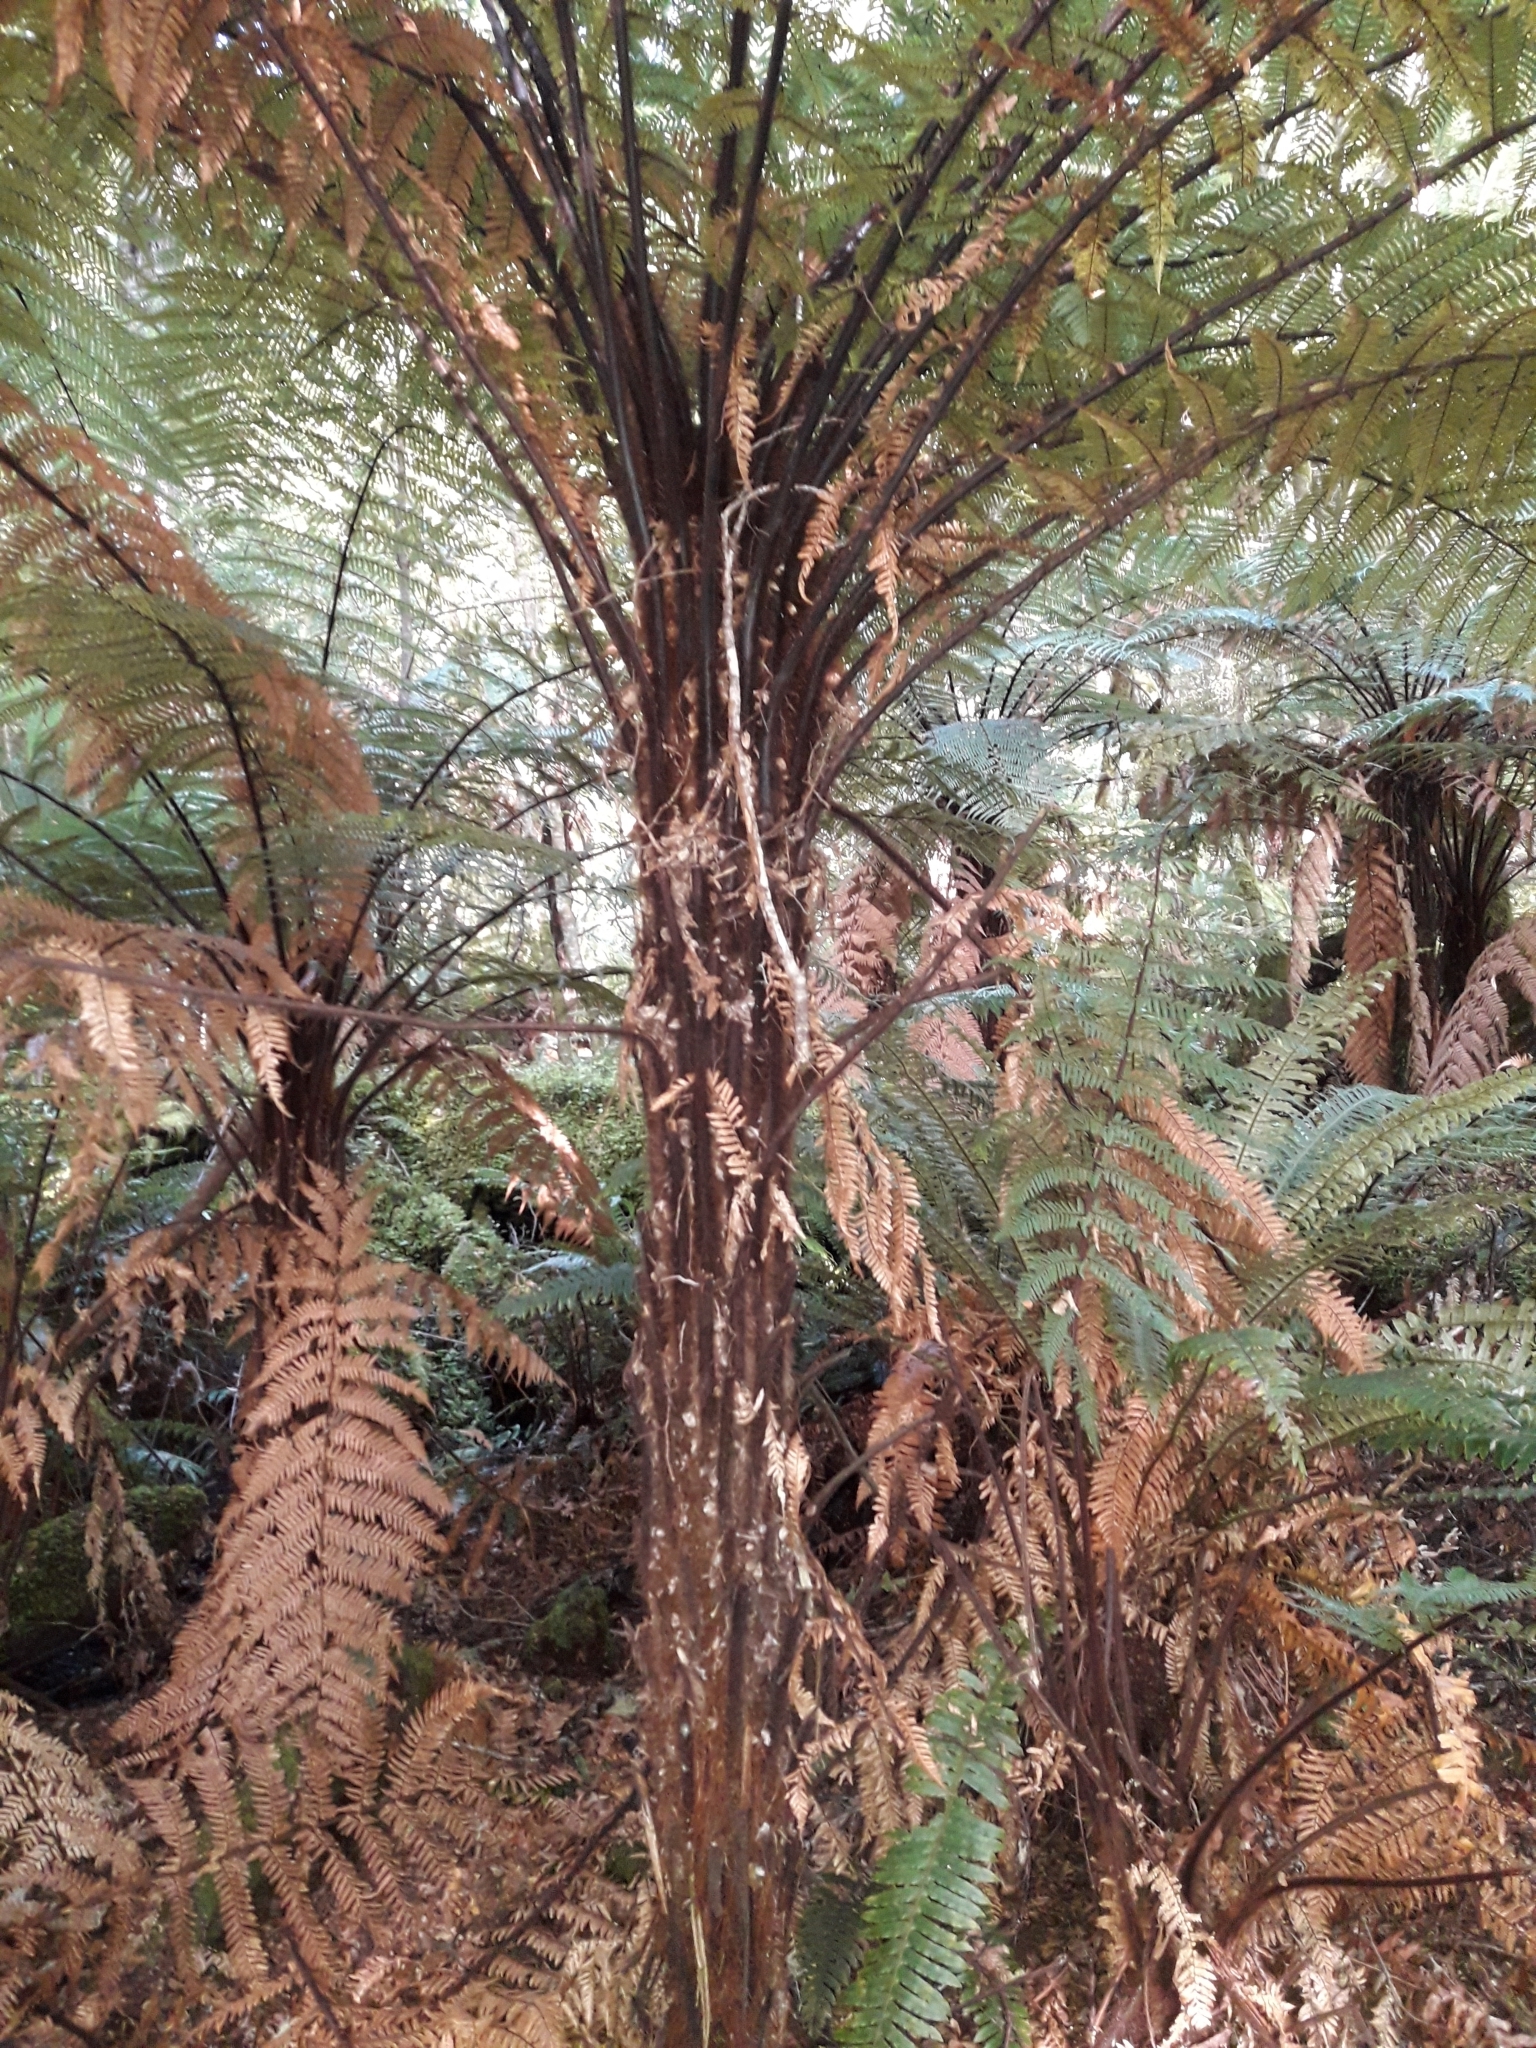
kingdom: Plantae
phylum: Tracheophyta
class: Polypodiopsida
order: Cyatheales
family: Dicksoniaceae
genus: Dicksonia
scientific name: Dicksonia squarrosa
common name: Hard treefern
